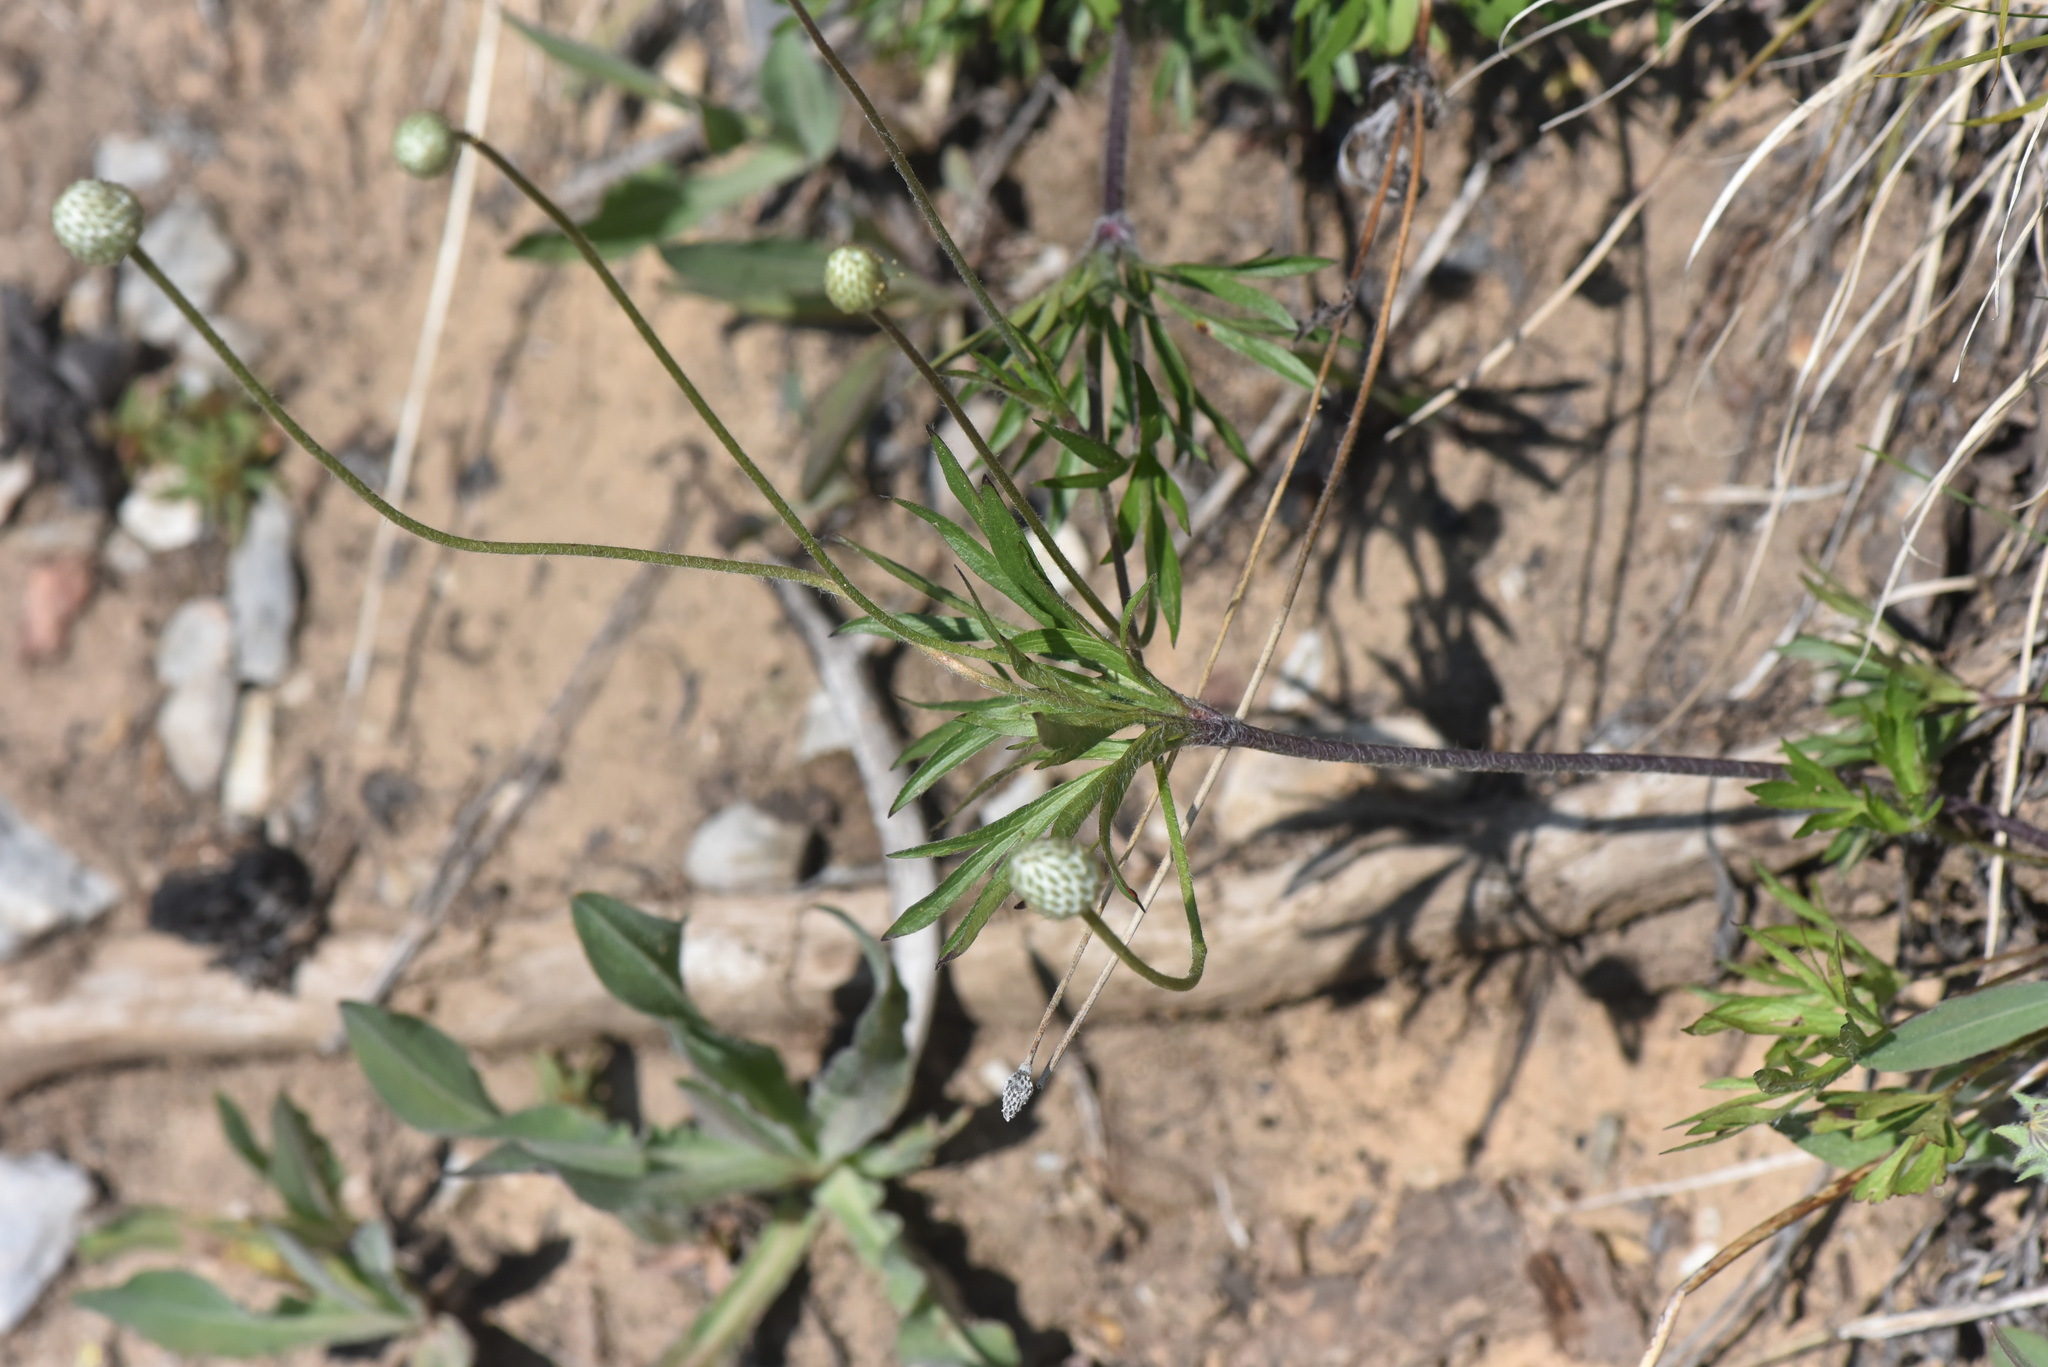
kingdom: Plantae
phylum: Tracheophyta
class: Magnoliopsida
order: Ranunculales
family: Ranunculaceae
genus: Anemone
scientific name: Anemone multifida
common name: Bird's-foot anemone
